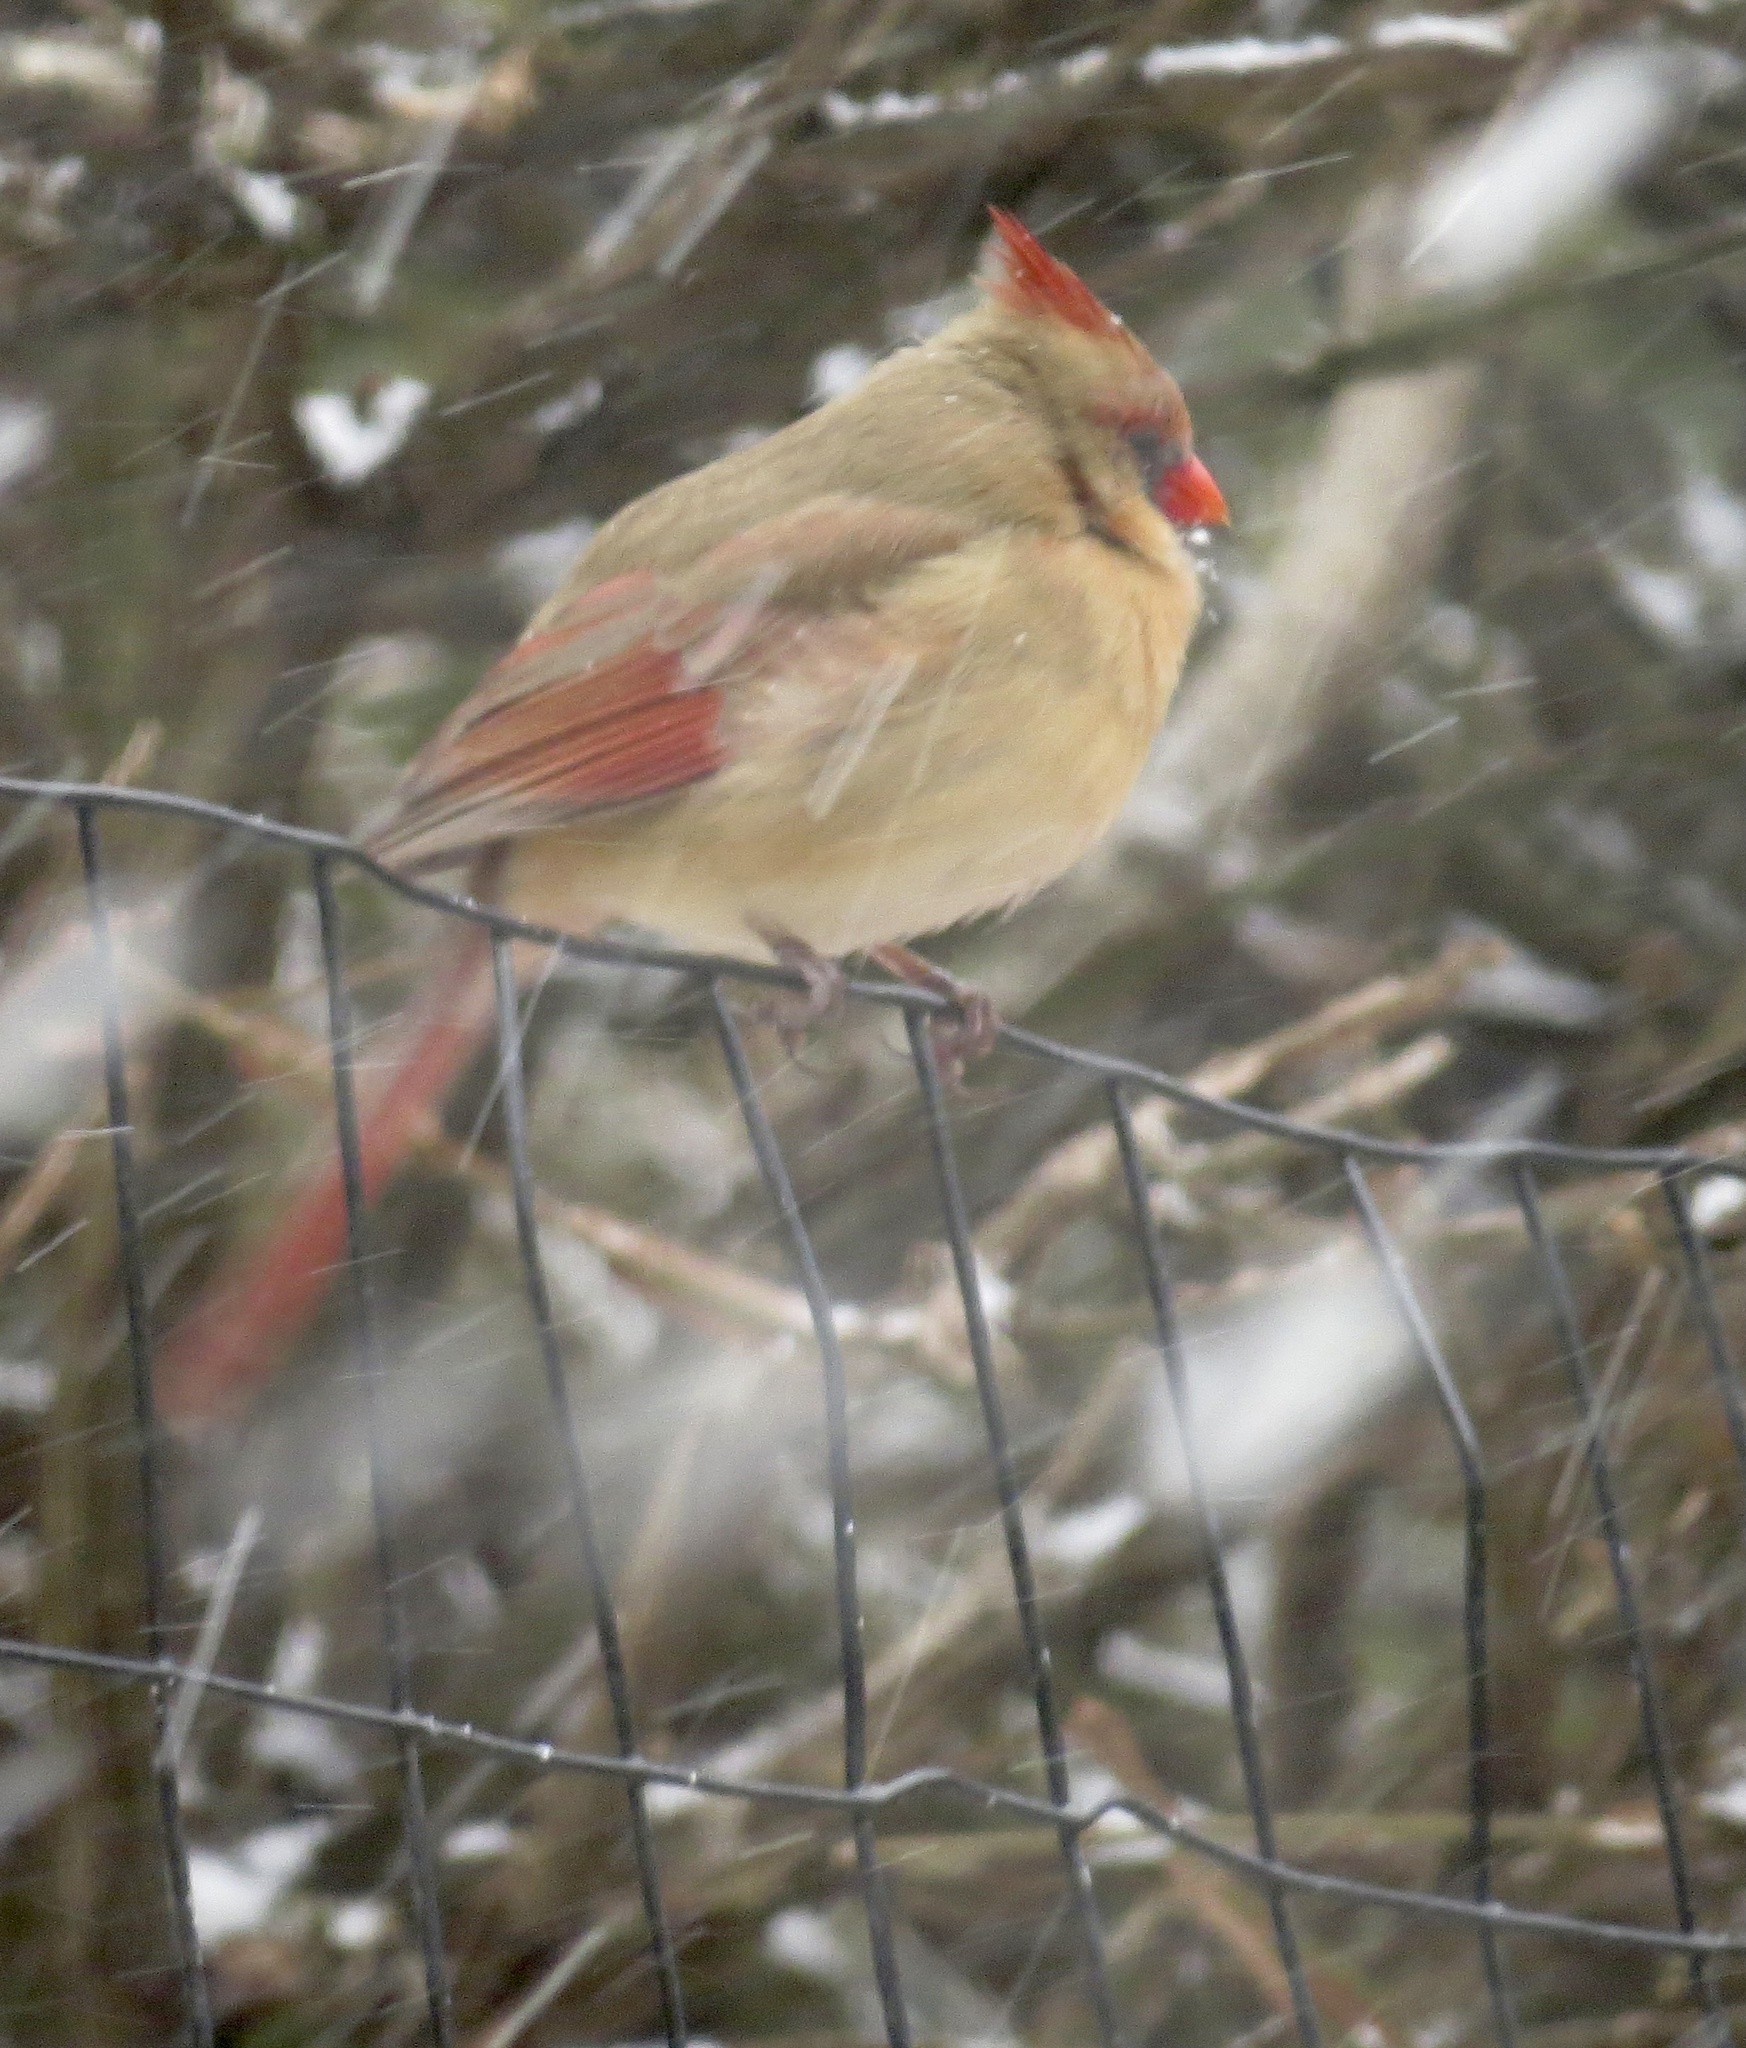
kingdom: Animalia
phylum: Chordata
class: Aves
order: Passeriformes
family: Cardinalidae
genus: Cardinalis
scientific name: Cardinalis cardinalis
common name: Northern cardinal
